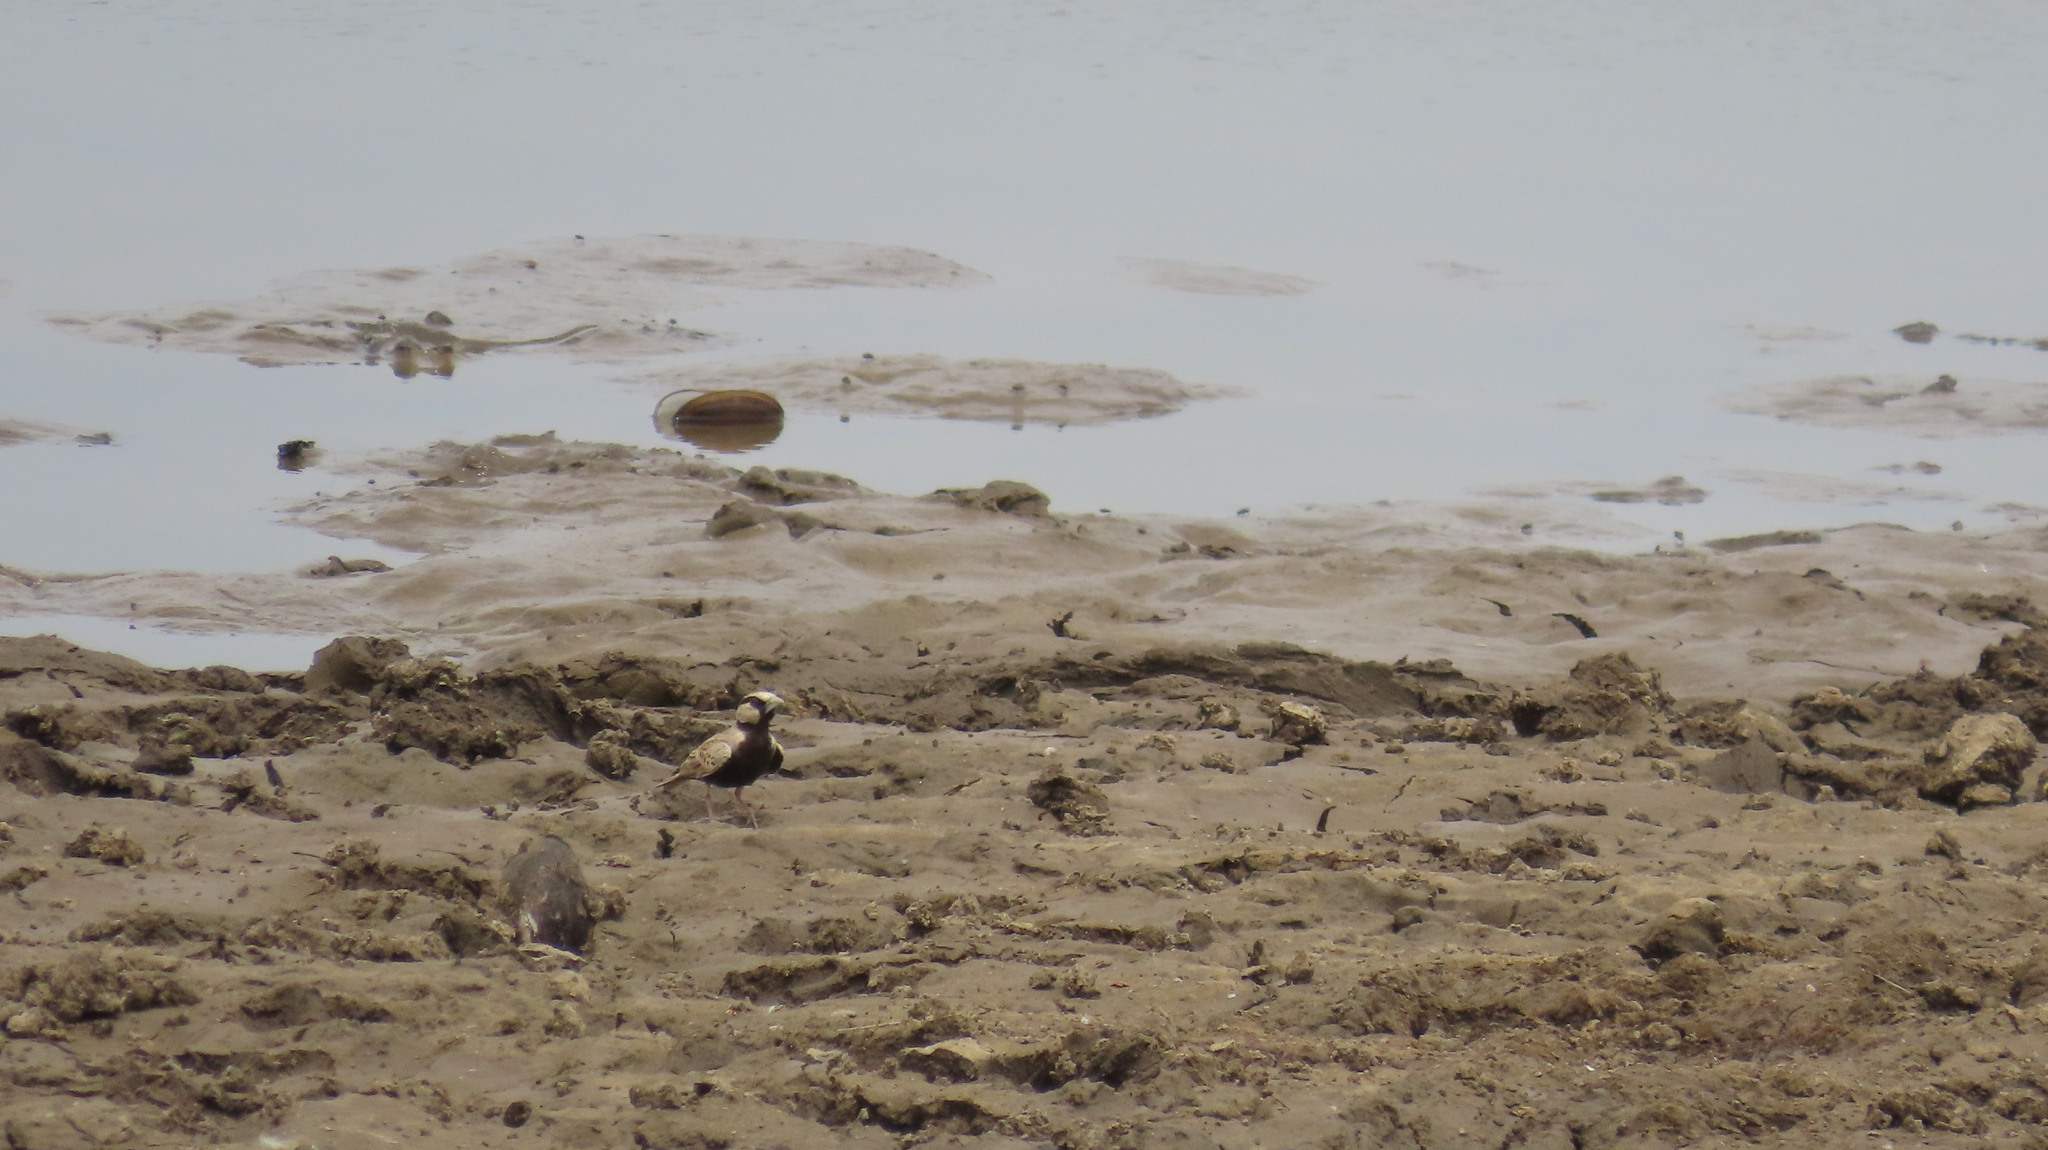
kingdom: Animalia
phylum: Chordata
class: Aves
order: Passeriformes
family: Alaudidae
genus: Eremopterix
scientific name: Eremopterix griseus
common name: Ashy-crowned sparrow-lark
